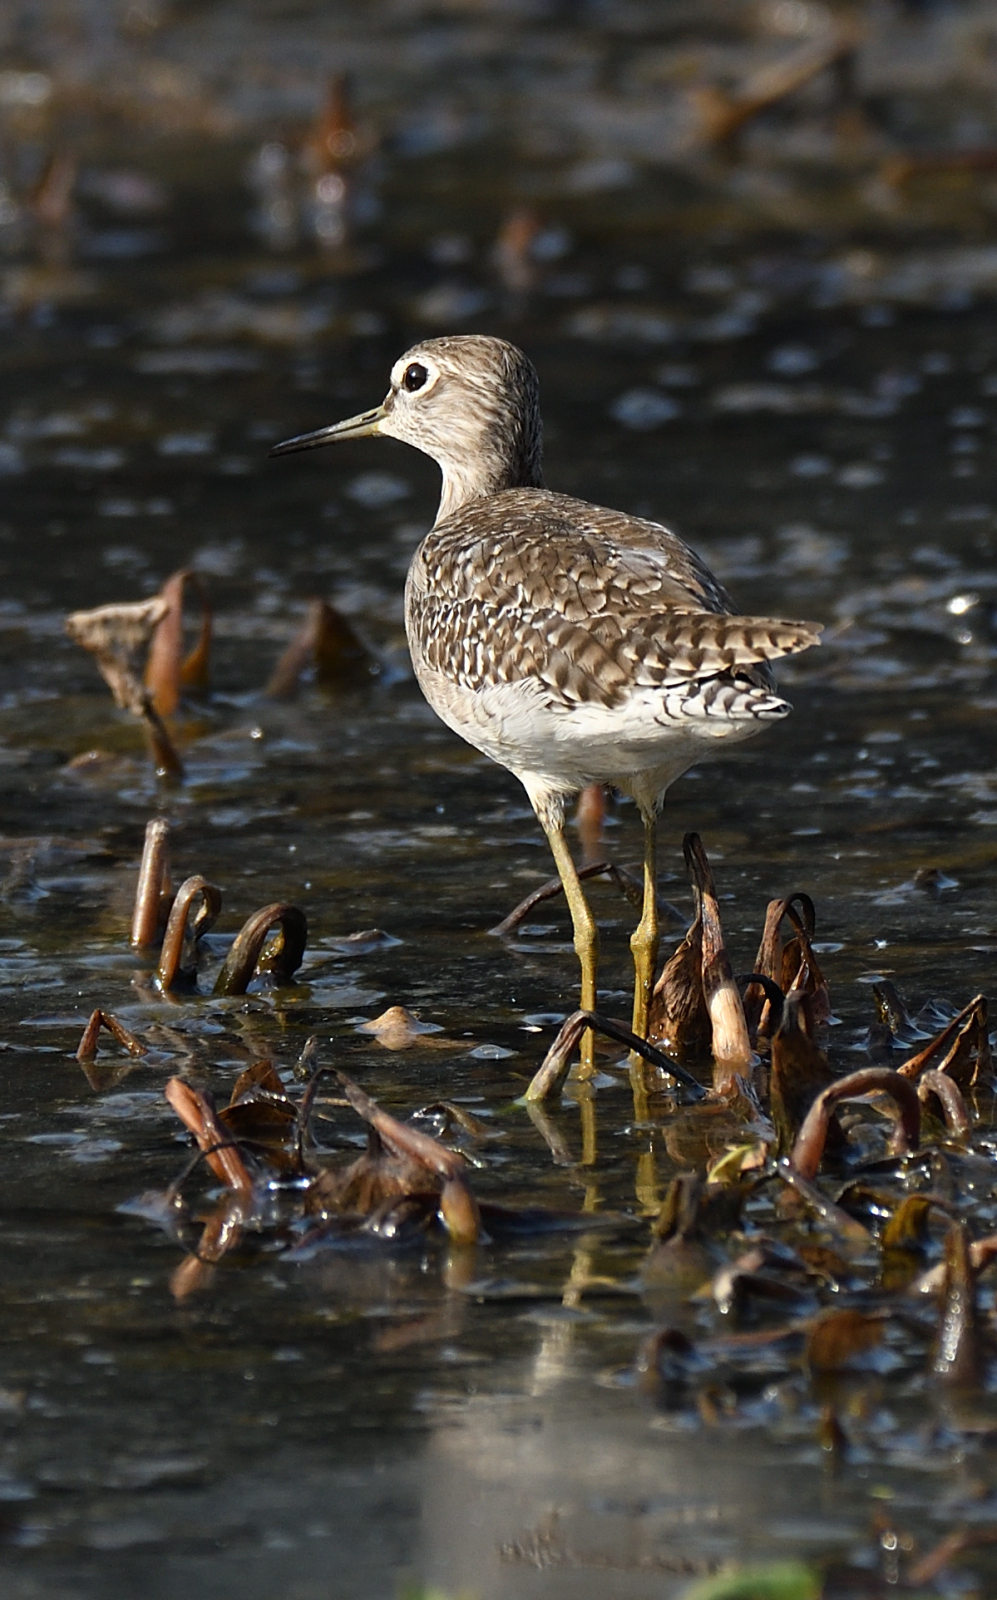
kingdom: Animalia
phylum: Chordata
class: Aves
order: Charadriiformes
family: Scolopacidae
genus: Tringa
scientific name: Tringa glareola
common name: Wood sandpiper
